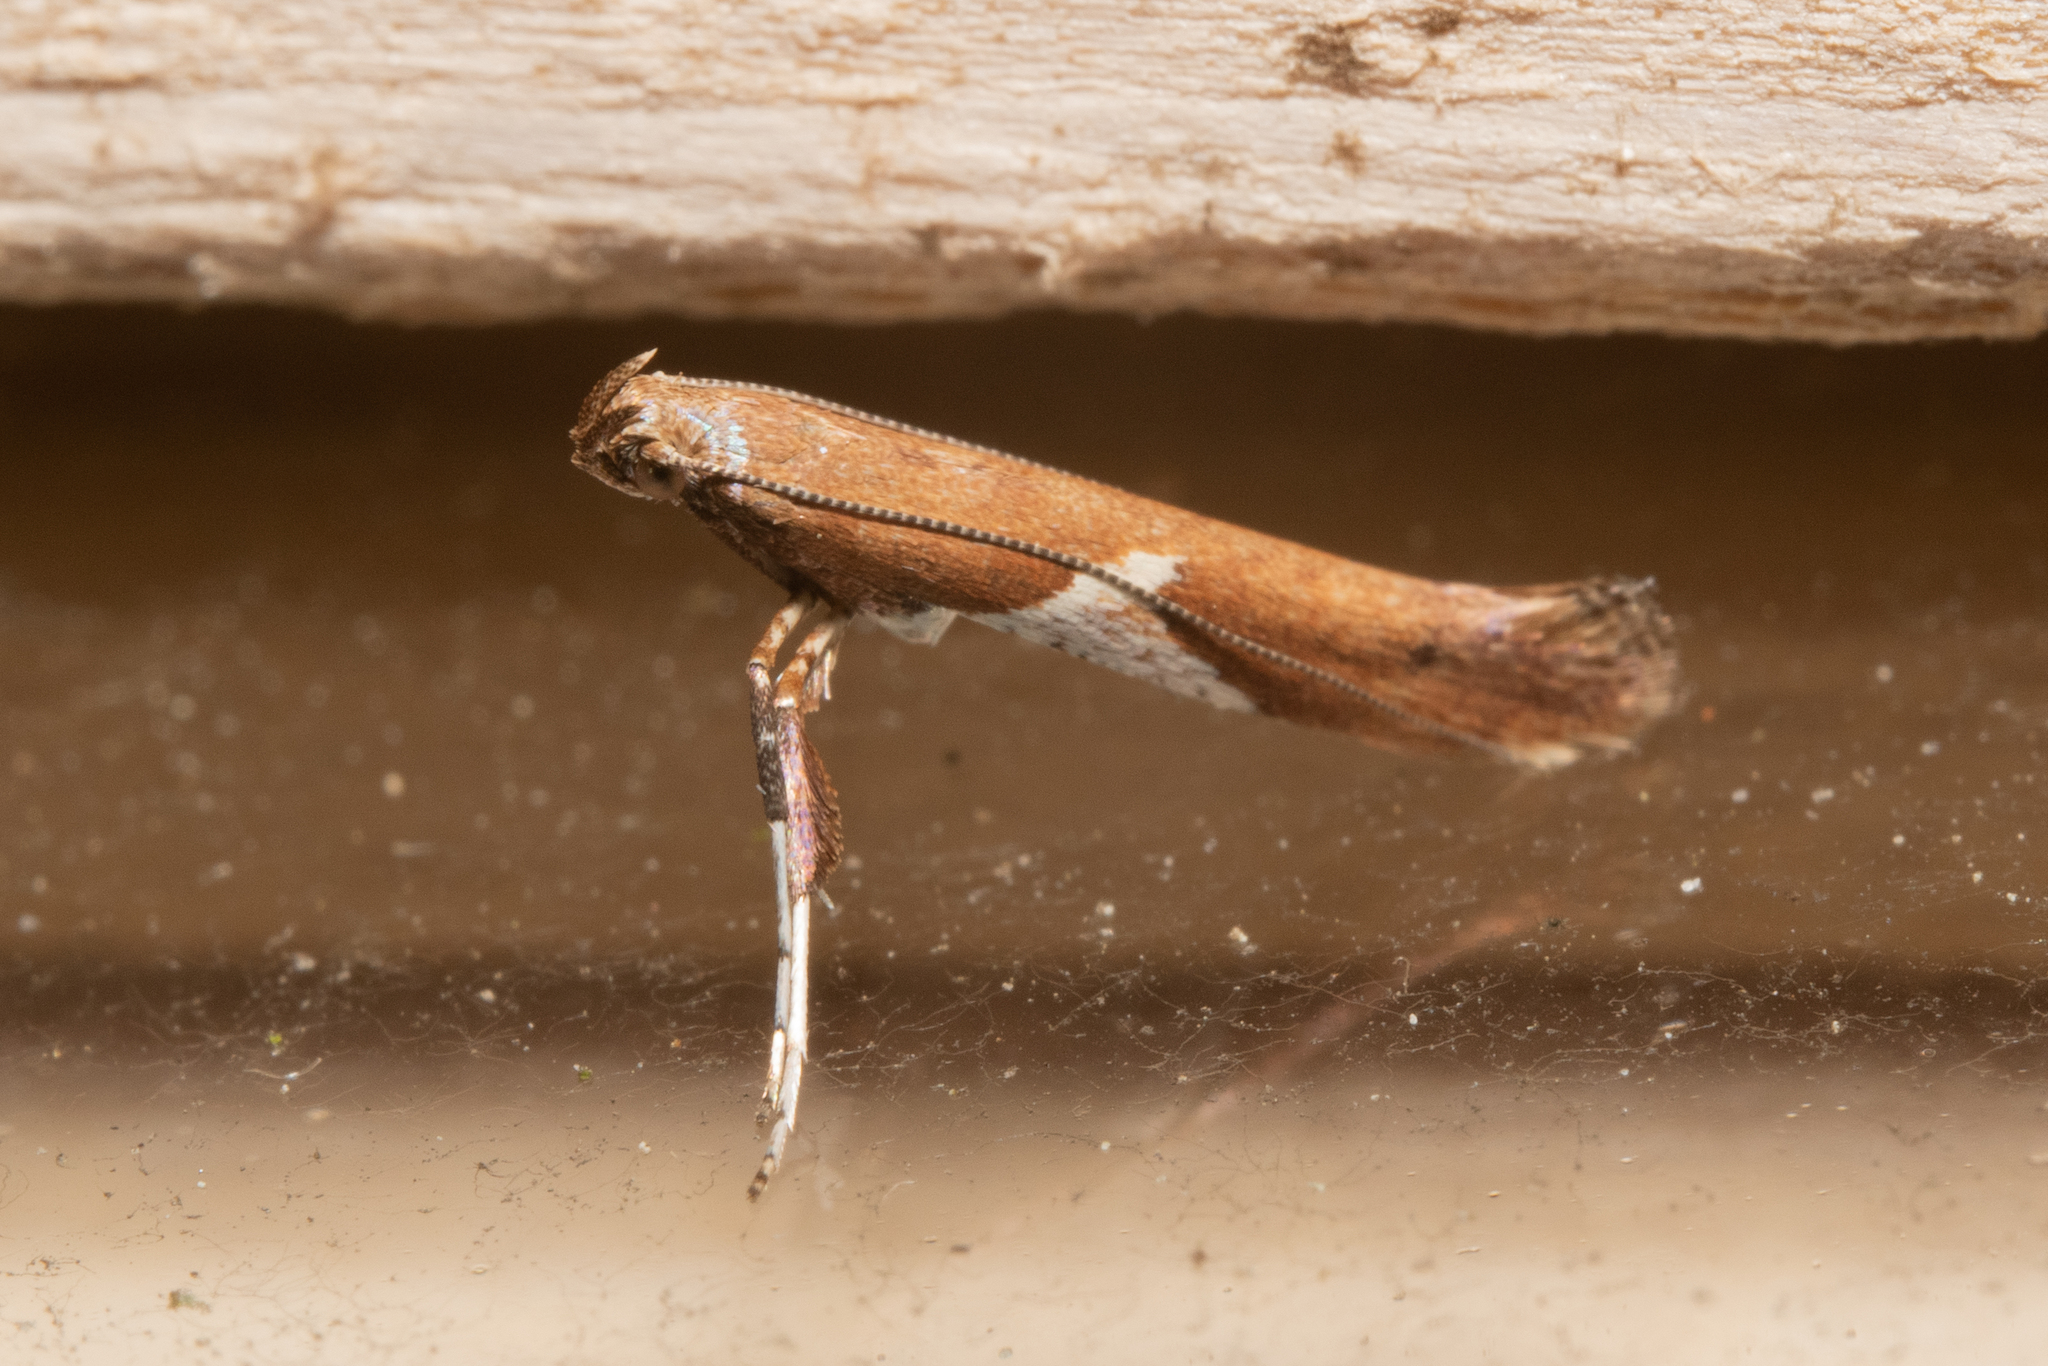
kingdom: Animalia
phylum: Arthropoda
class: Insecta
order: Lepidoptera
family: Gracillariidae
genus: Caloptilia
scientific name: Caloptilia stigmatella
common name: White-triangle slender
